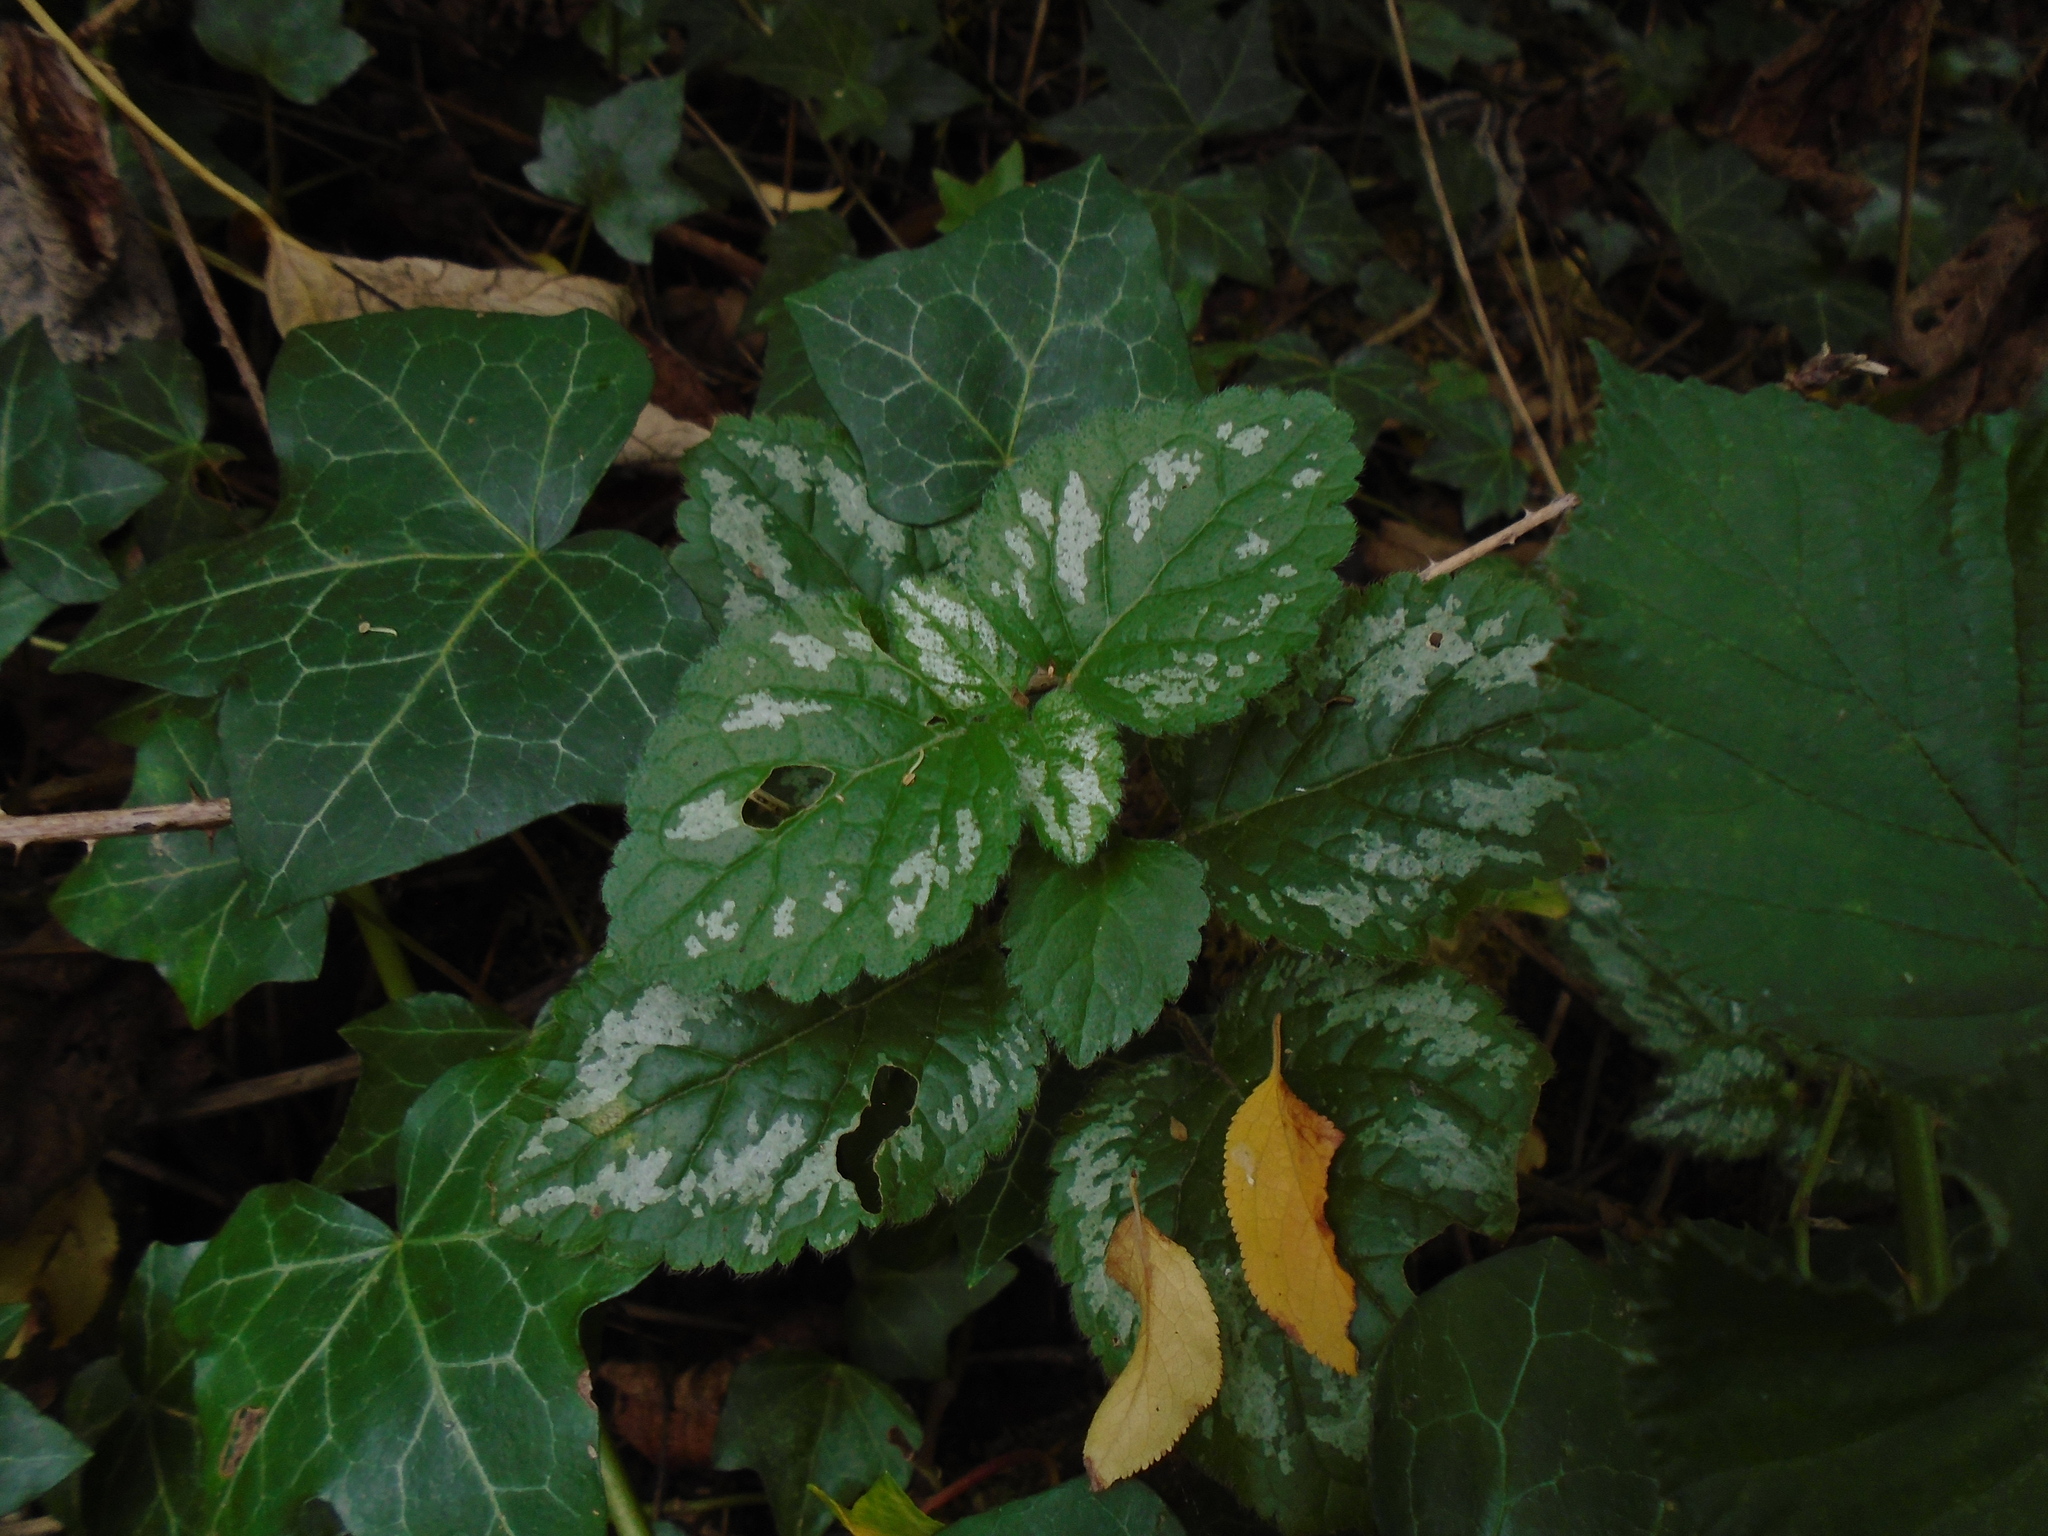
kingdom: Plantae
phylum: Tracheophyta
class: Magnoliopsida
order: Lamiales
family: Lamiaceae
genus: Lamium
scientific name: Lamium galeobdolon
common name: Yellow archangel
